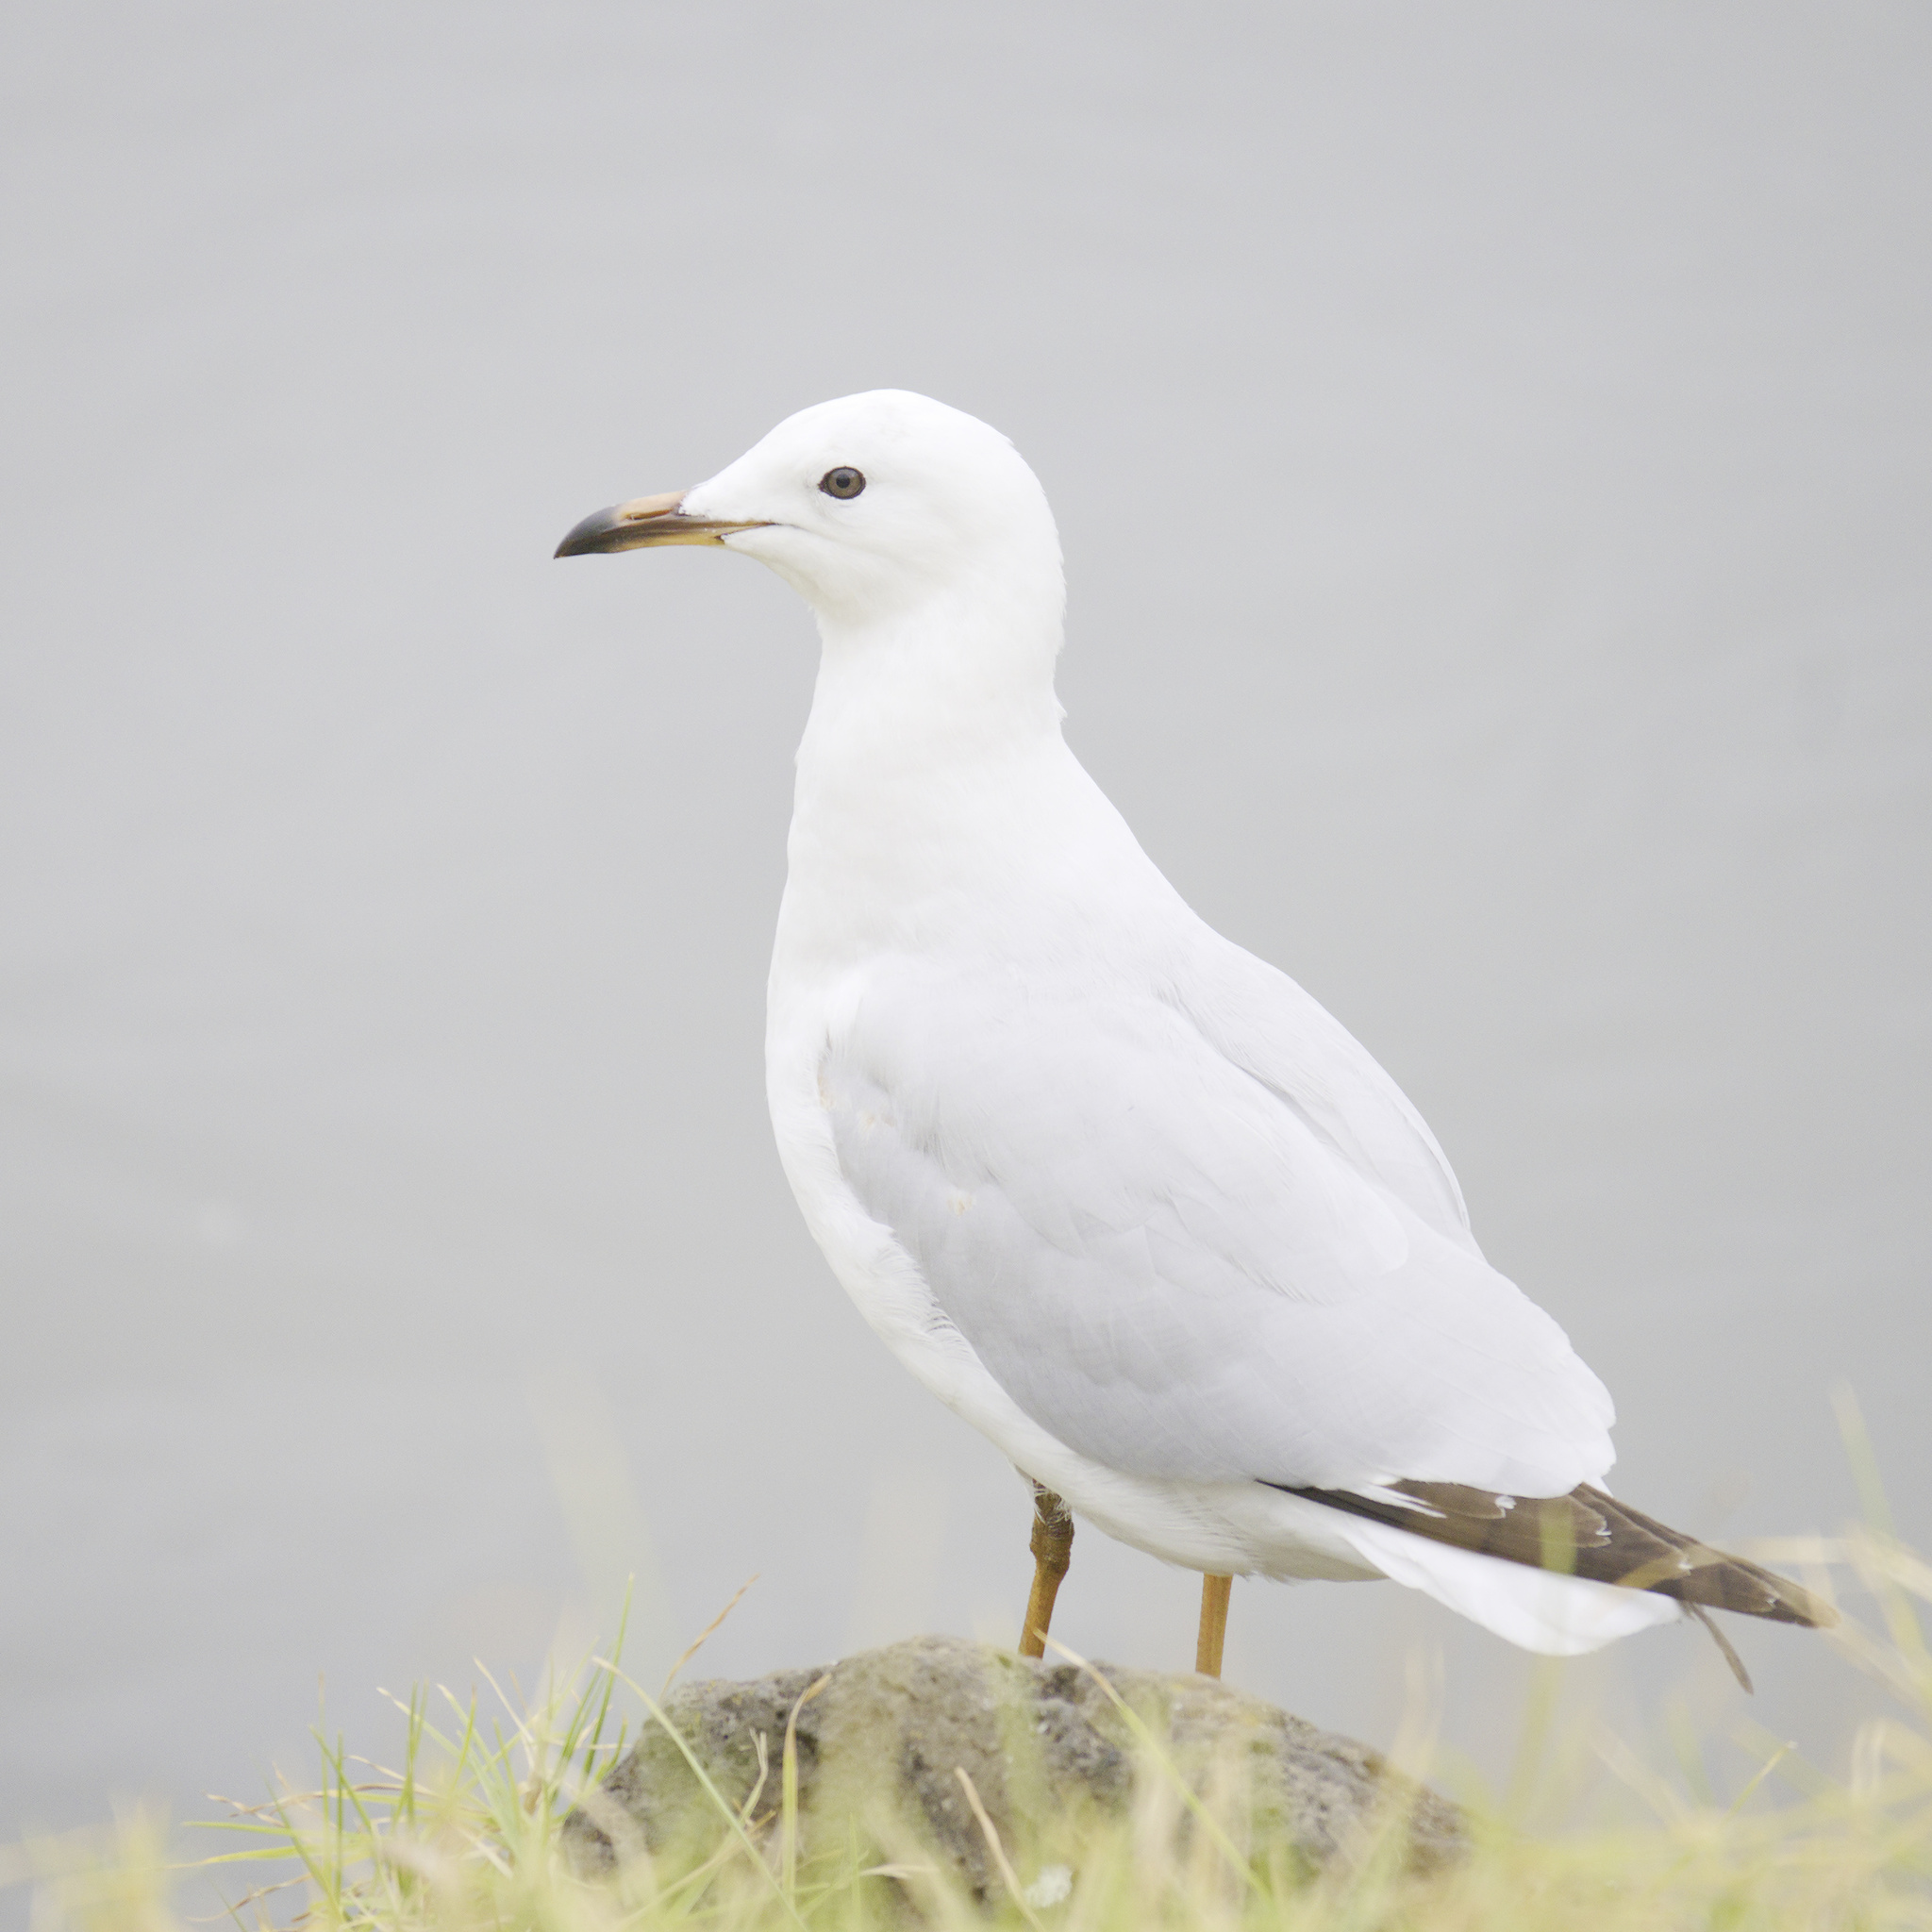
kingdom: Animalia
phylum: Chordata
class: Aves
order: Charadriiformes
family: Laridae
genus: Chroicocephalus
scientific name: Chroicocephalus novaehollandiae
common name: Silver gull
